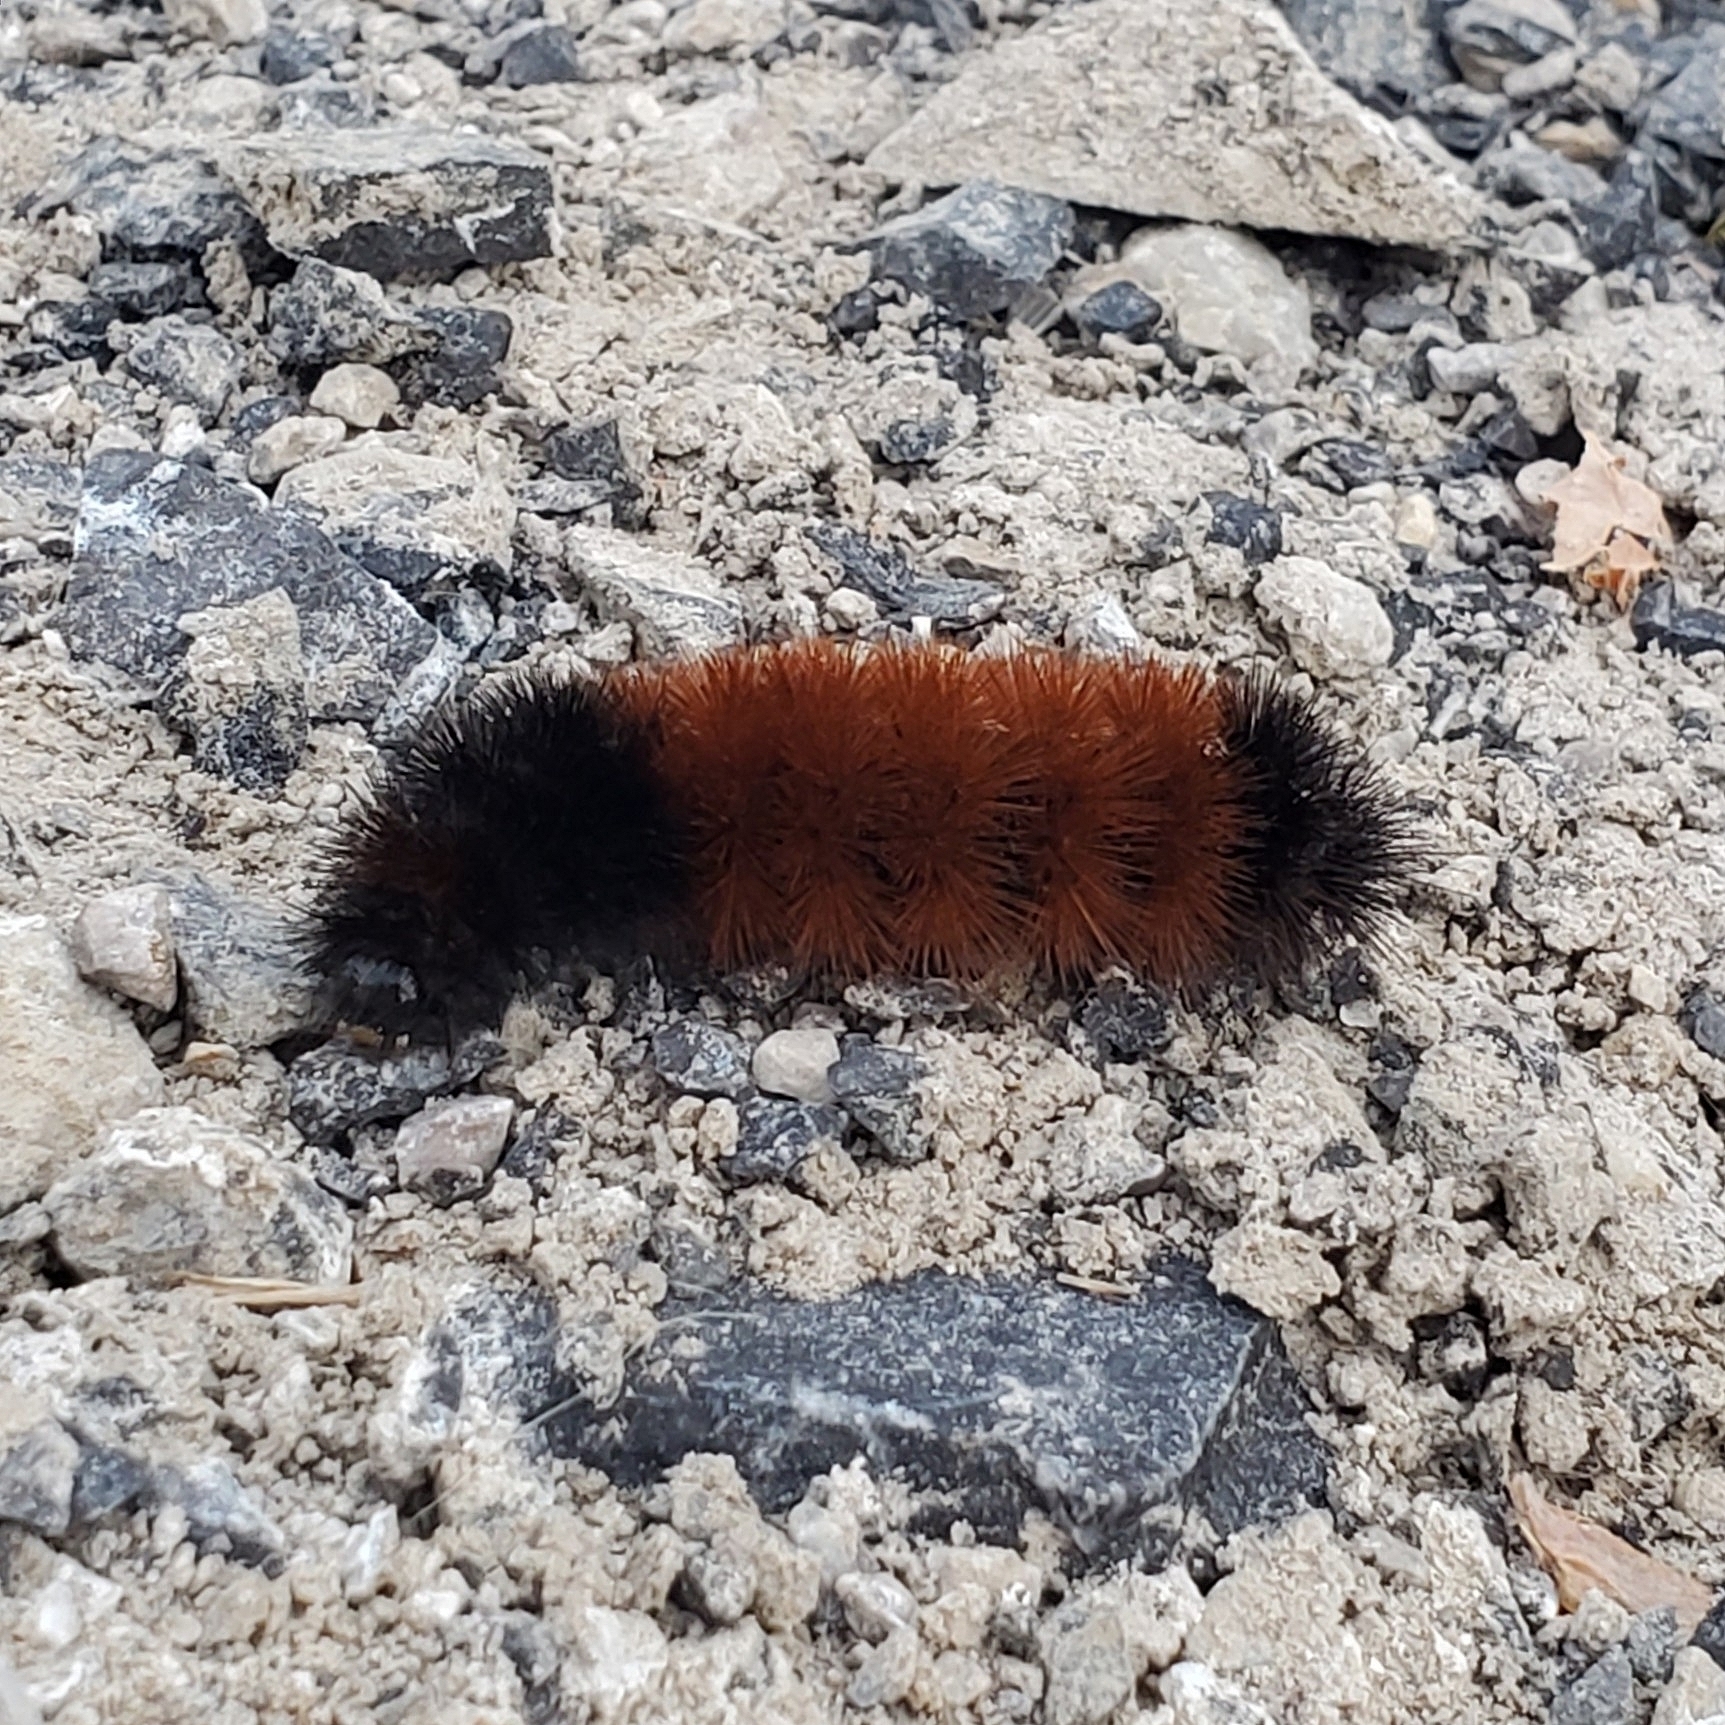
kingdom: Animalia
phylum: Arthropoda
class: Insecta
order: Lepidoptera
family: Erebidae
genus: Pyrrharctia
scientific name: Pyrrharctia isabella
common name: Isabella tiger moth
